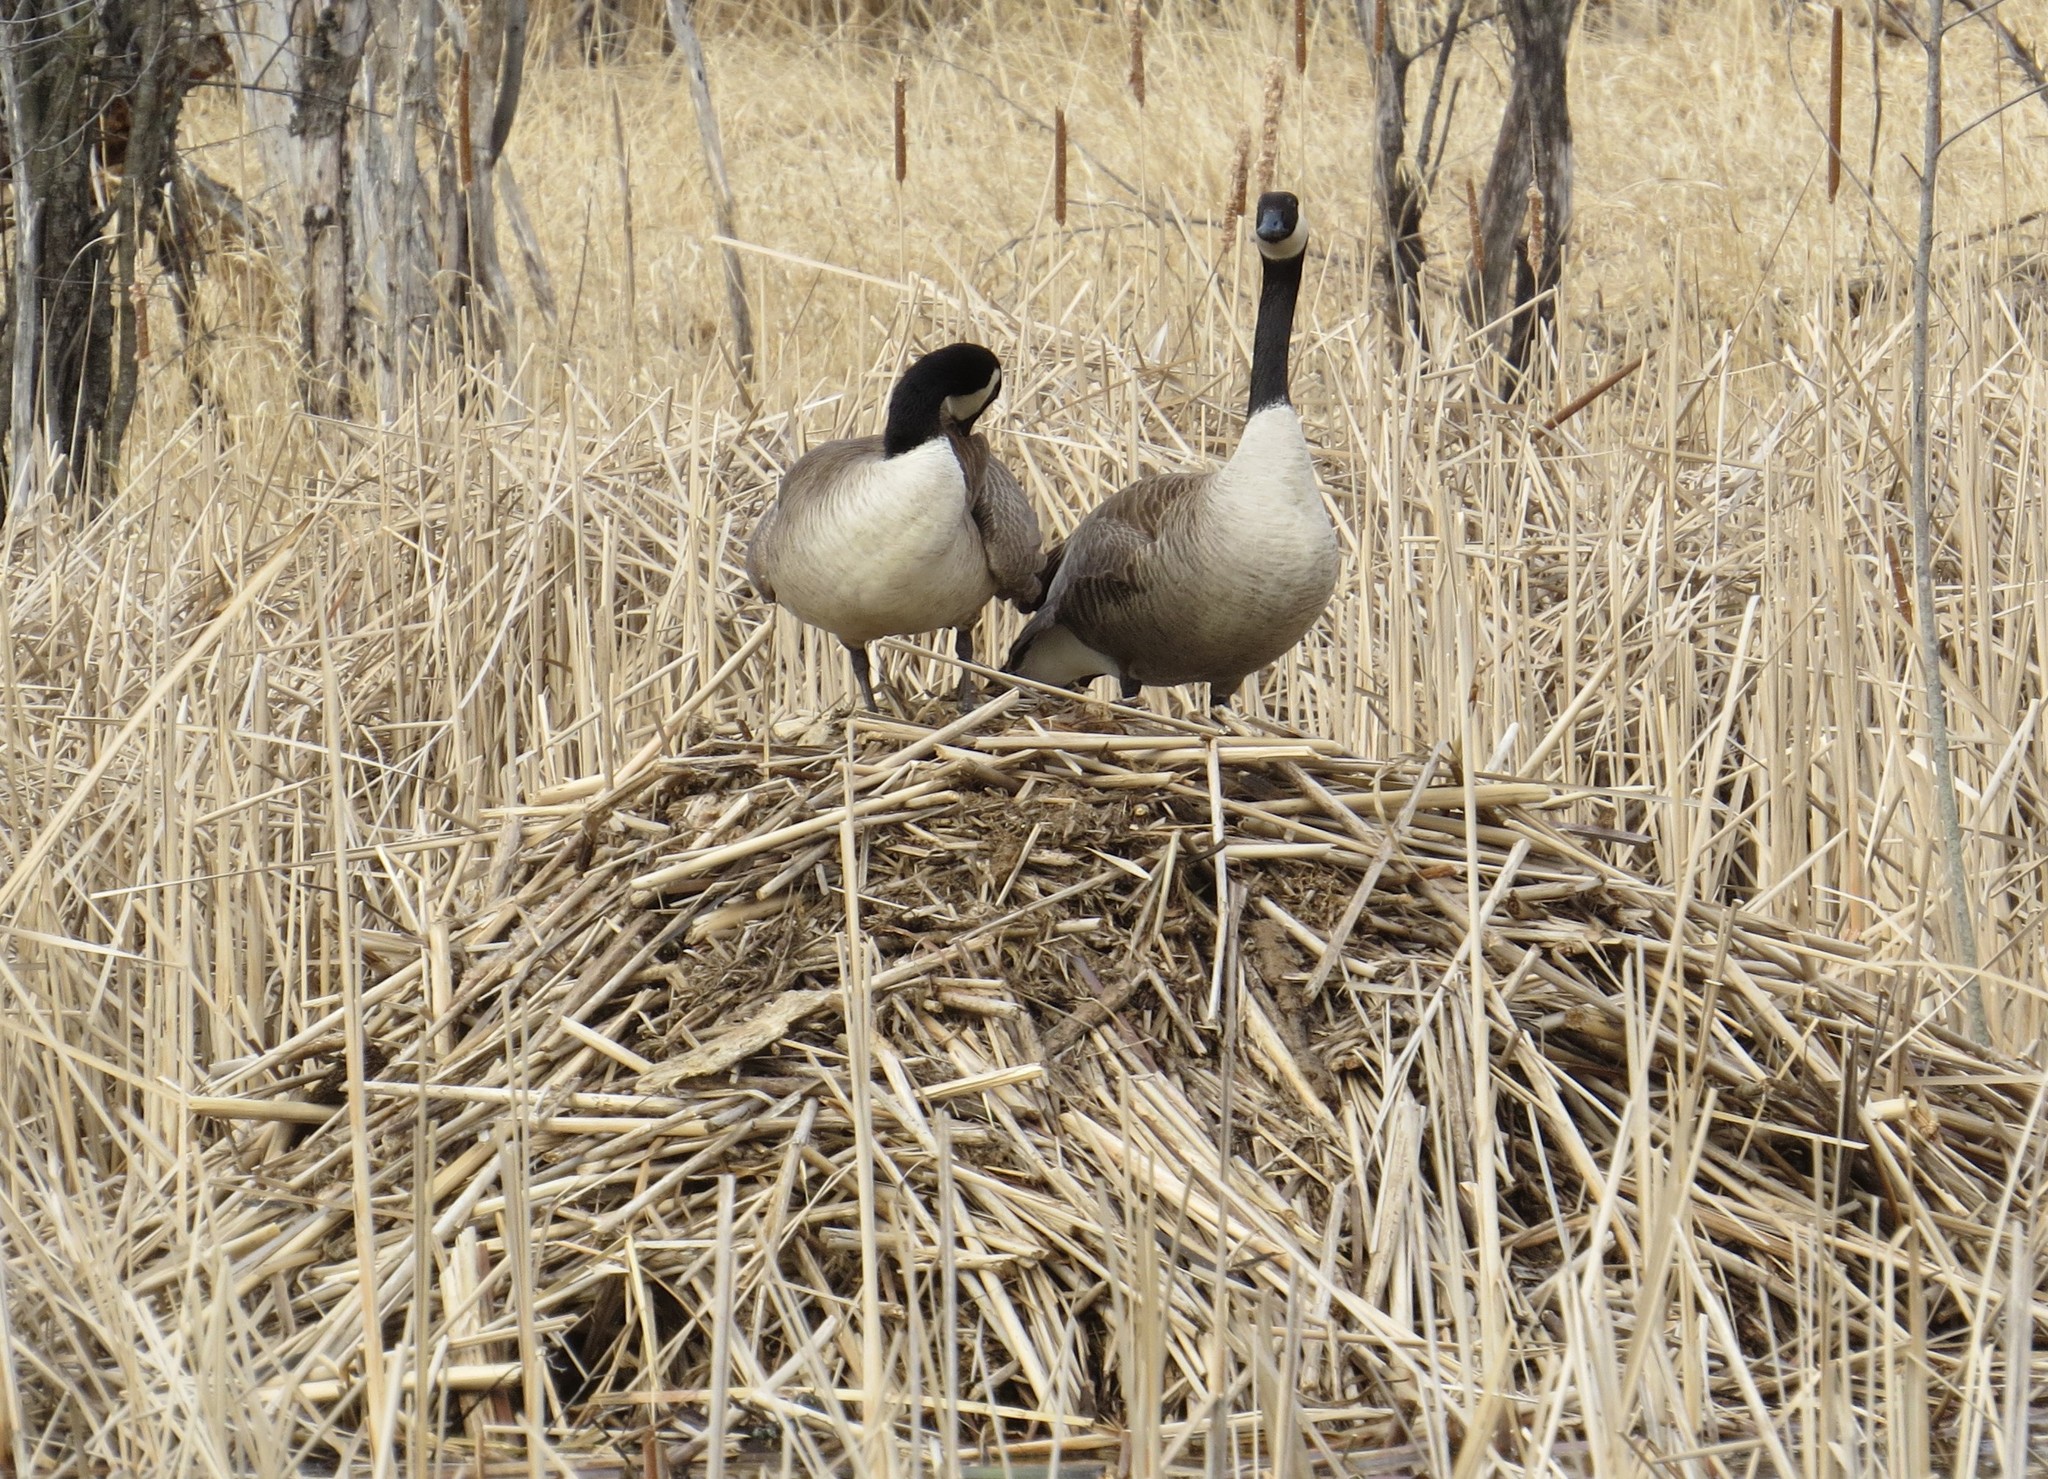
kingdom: Animalia
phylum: Chordata
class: Aves
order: Anseriformes
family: Anatidae
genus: Branta
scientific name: Branta canadensis
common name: Canada goose
